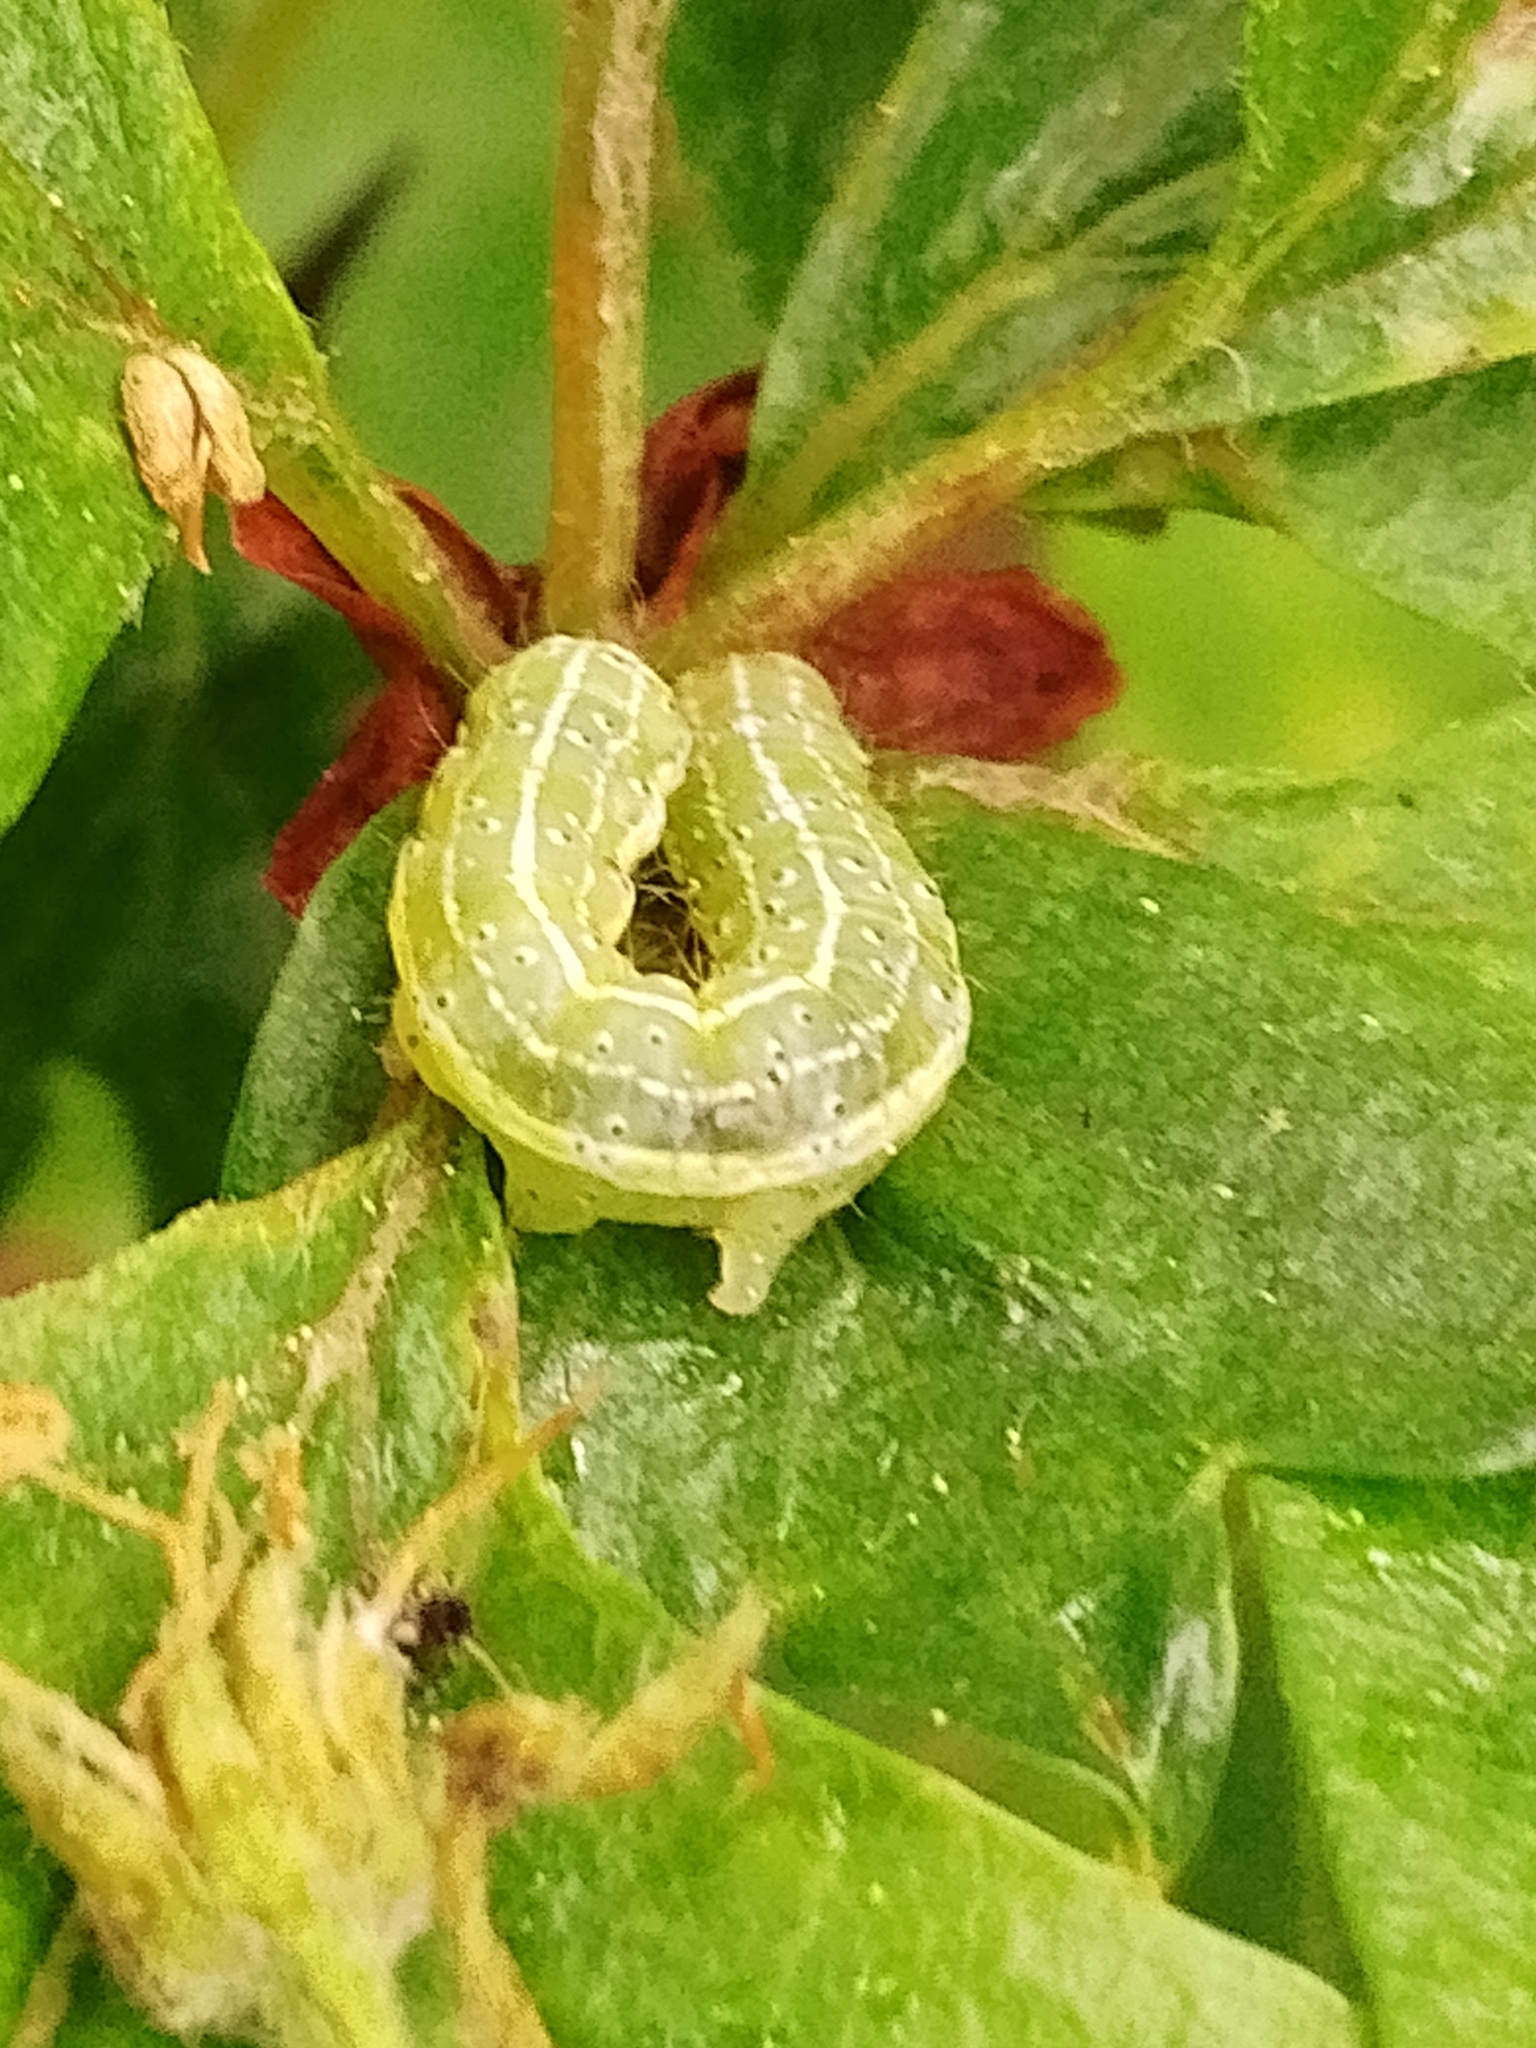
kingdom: Animalia
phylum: Arthropoda
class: Insecta
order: Lepidoptera
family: Noctuidae
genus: Cosmia
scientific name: Cosmia trapezina
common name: Dun-bar
